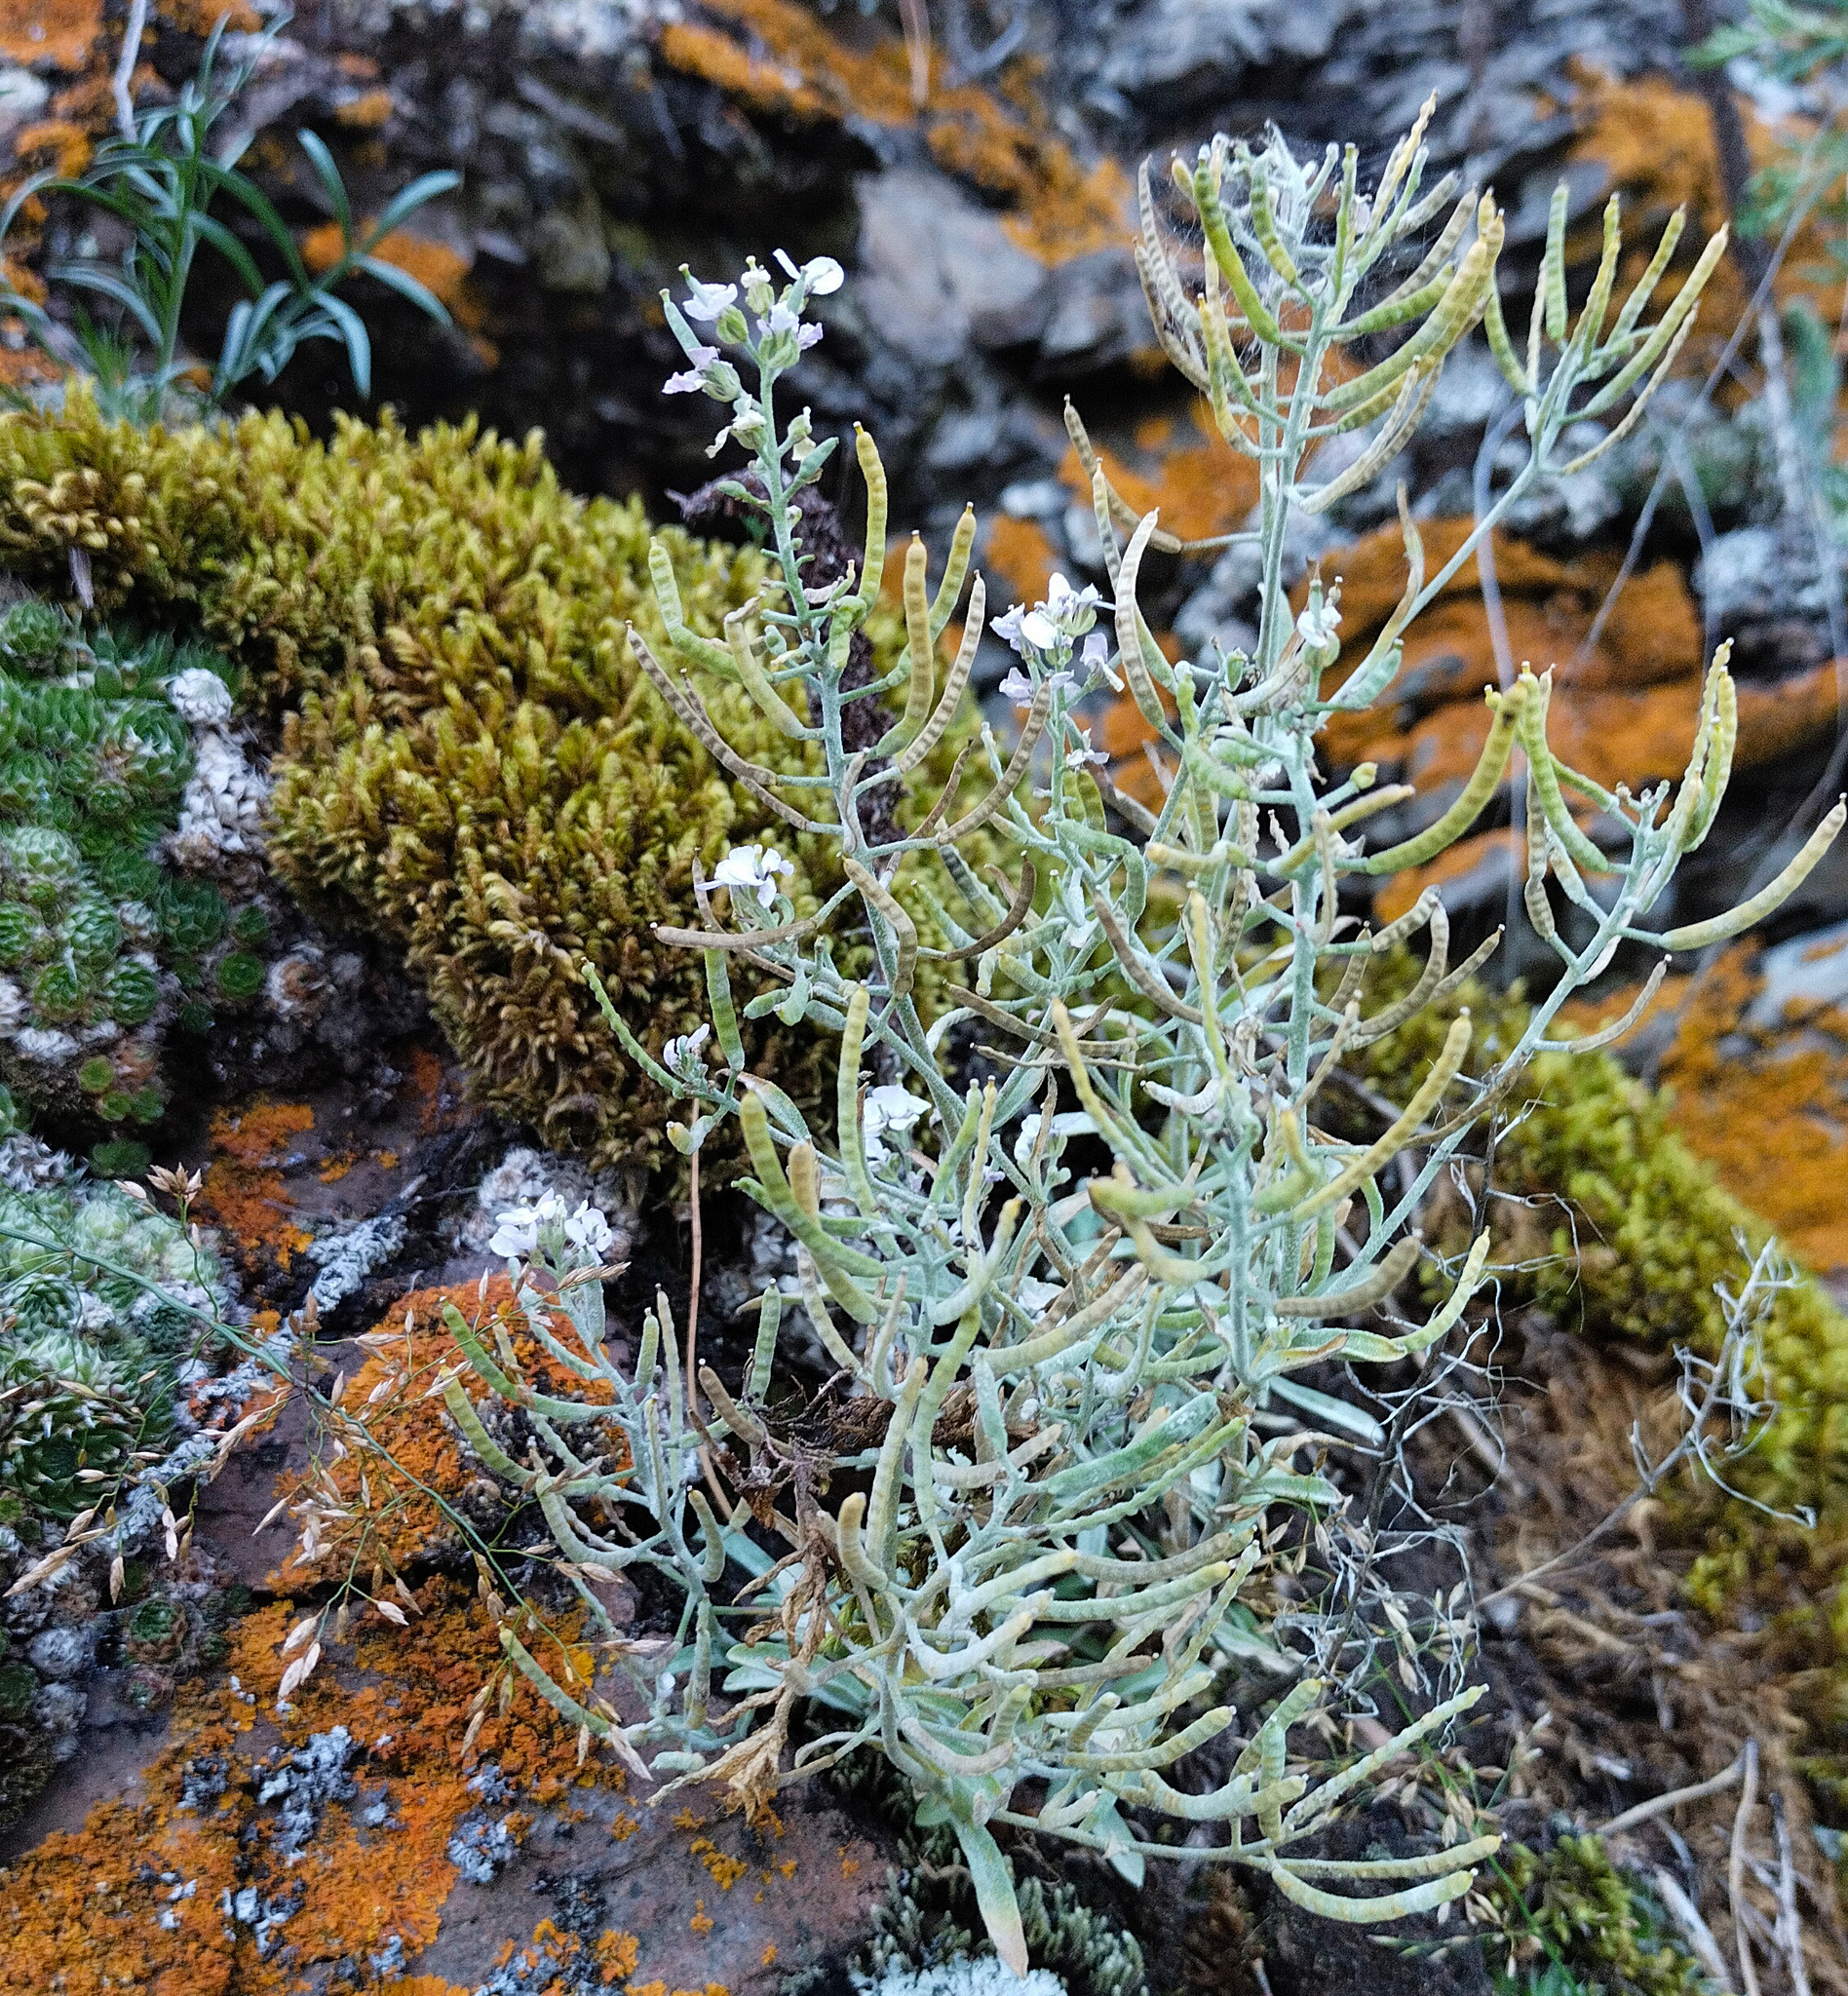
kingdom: Plantae
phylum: Tracheophyta
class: Magnoliopsida
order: Brassicales
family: Brassicaceae
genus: Stevenia
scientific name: Stevenia incarnata
